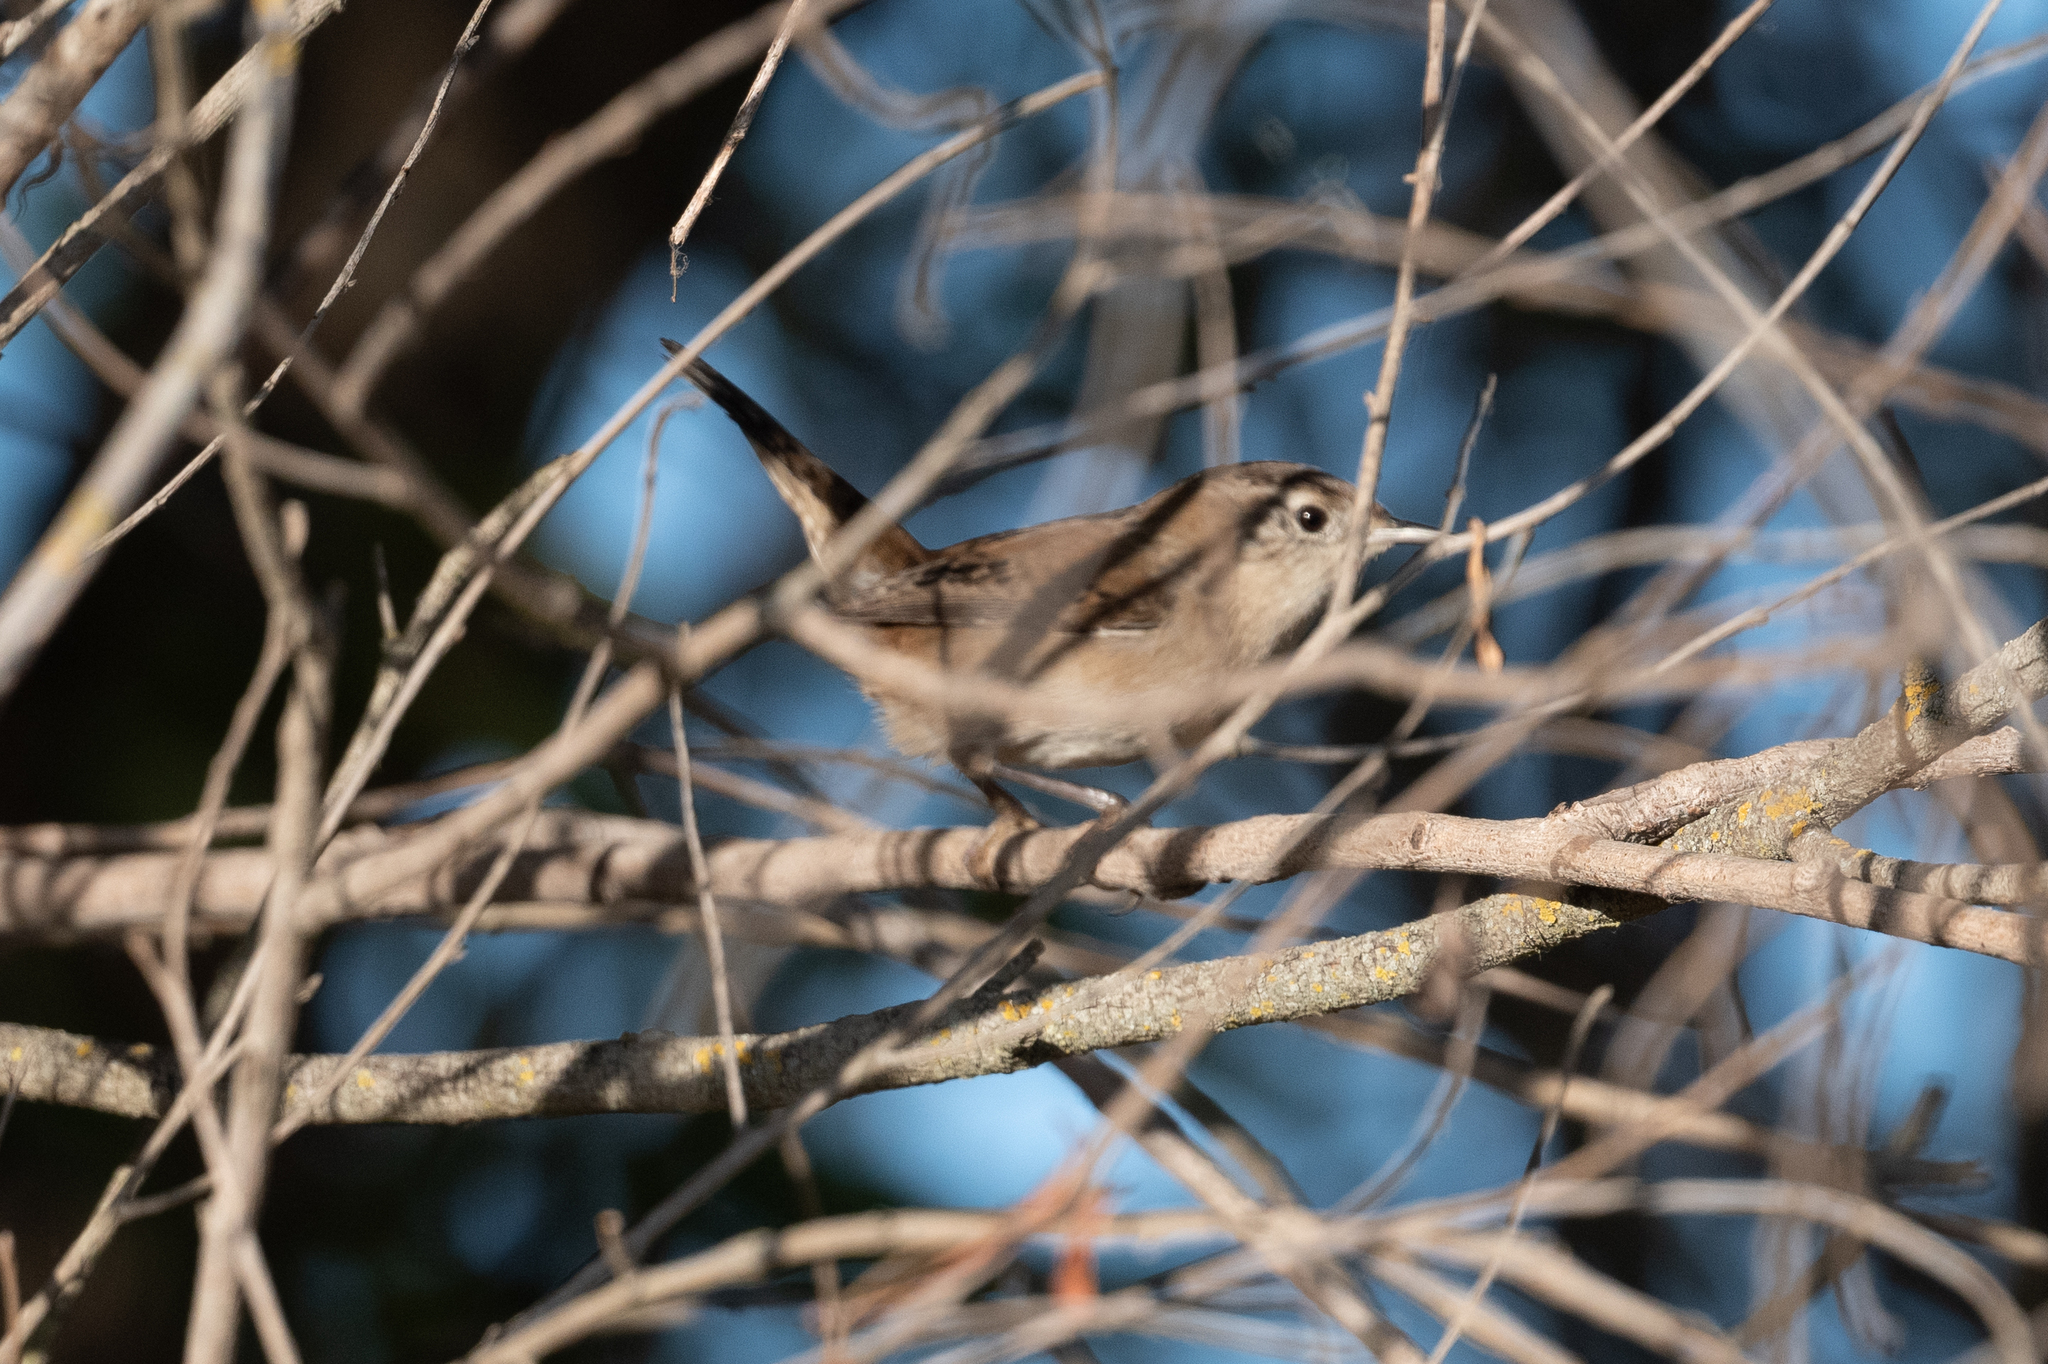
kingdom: Animalia
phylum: Chordata
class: Aves
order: Passeriformes
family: Troglodytidae
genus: Cistothorus
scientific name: Cistothorus palustris
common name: Marsh wren
